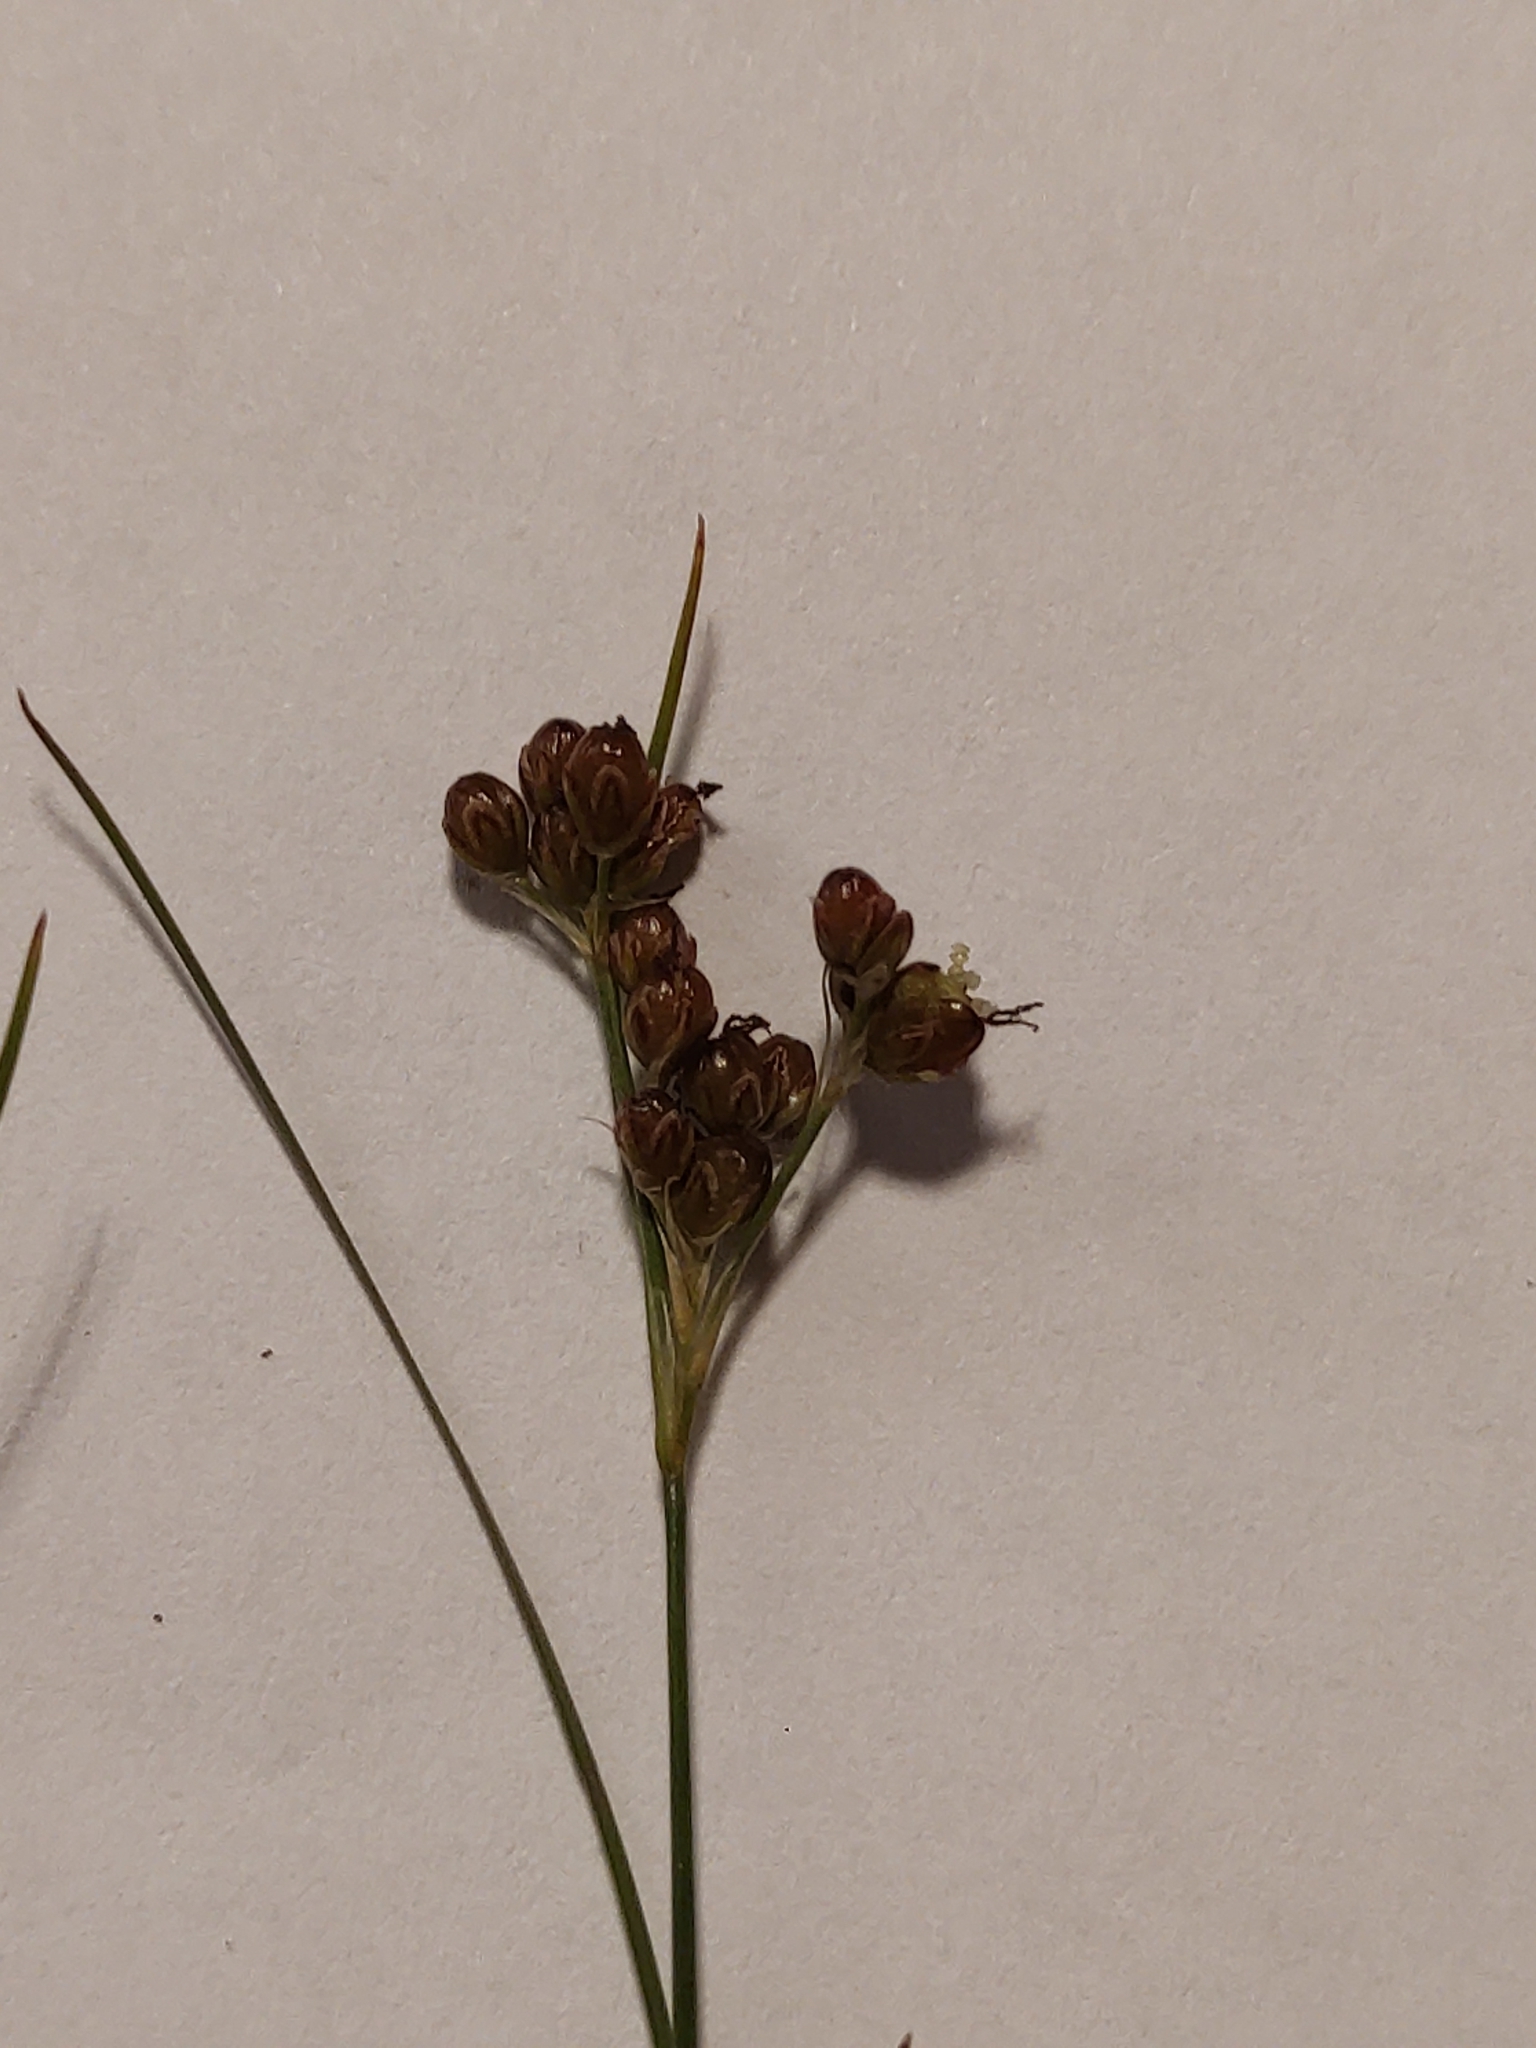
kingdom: Plantae
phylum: Tracheophyta
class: Liliopsida
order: Poales
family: Juncaceae
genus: Juncus
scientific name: Juncus compressus
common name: Round-fruited rush
